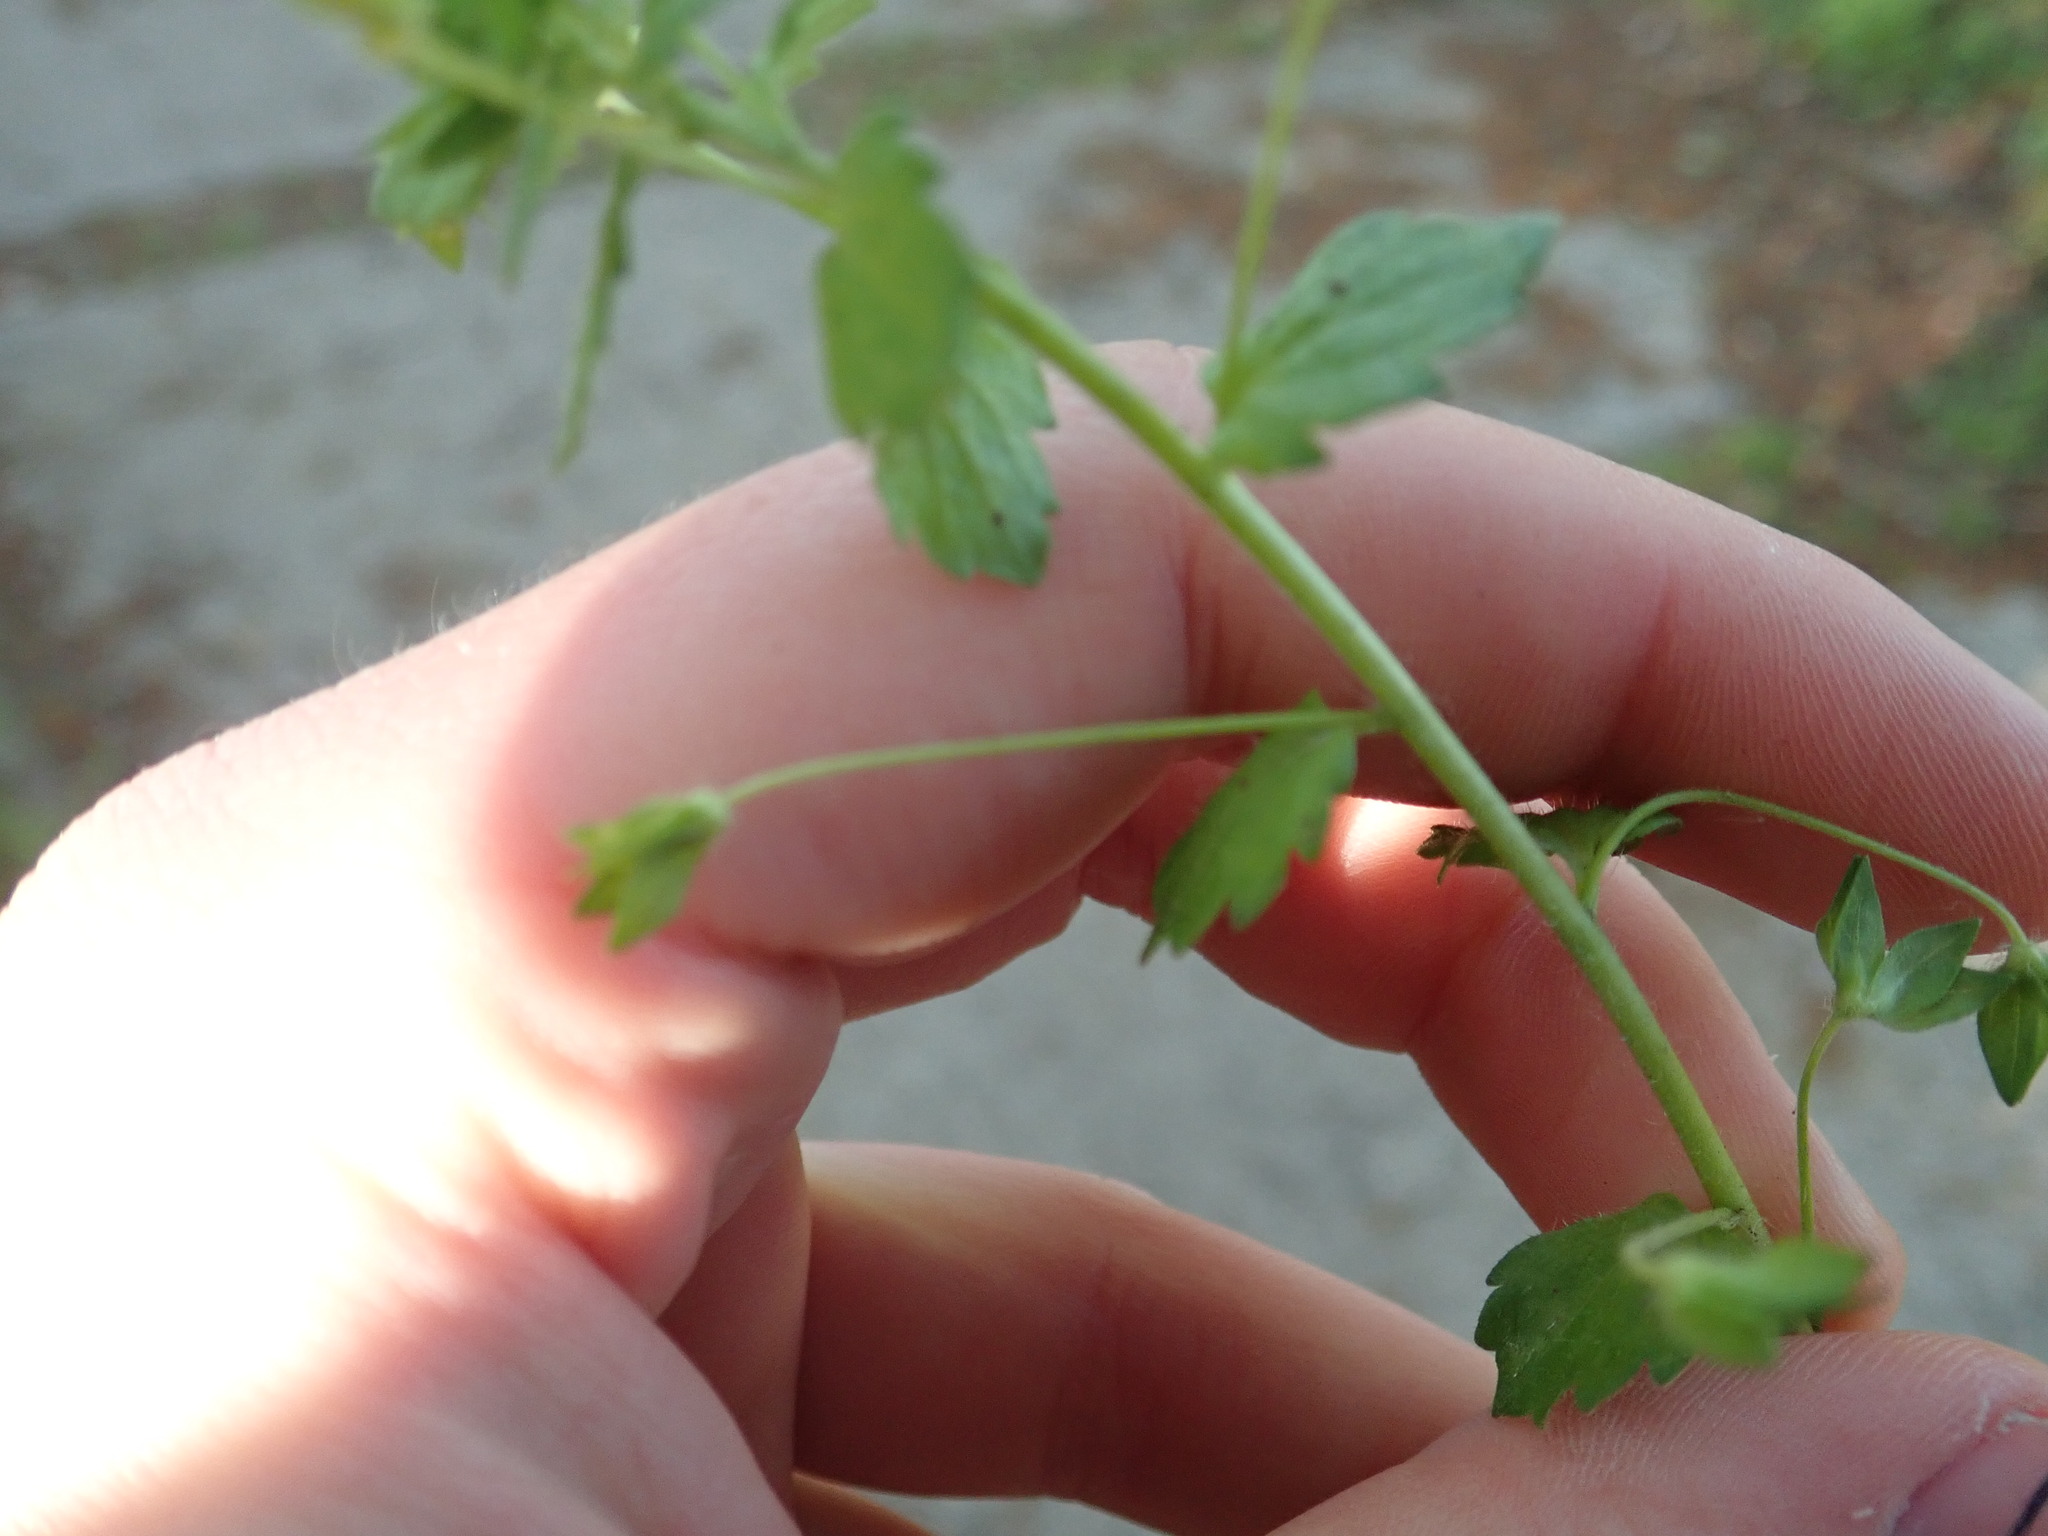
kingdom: Plantae
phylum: Tracheophyta
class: Magnoliopsida
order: Lamiales
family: Plantaginaceae
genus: Veronica
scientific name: Veronica persica
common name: Common field-speedwell
